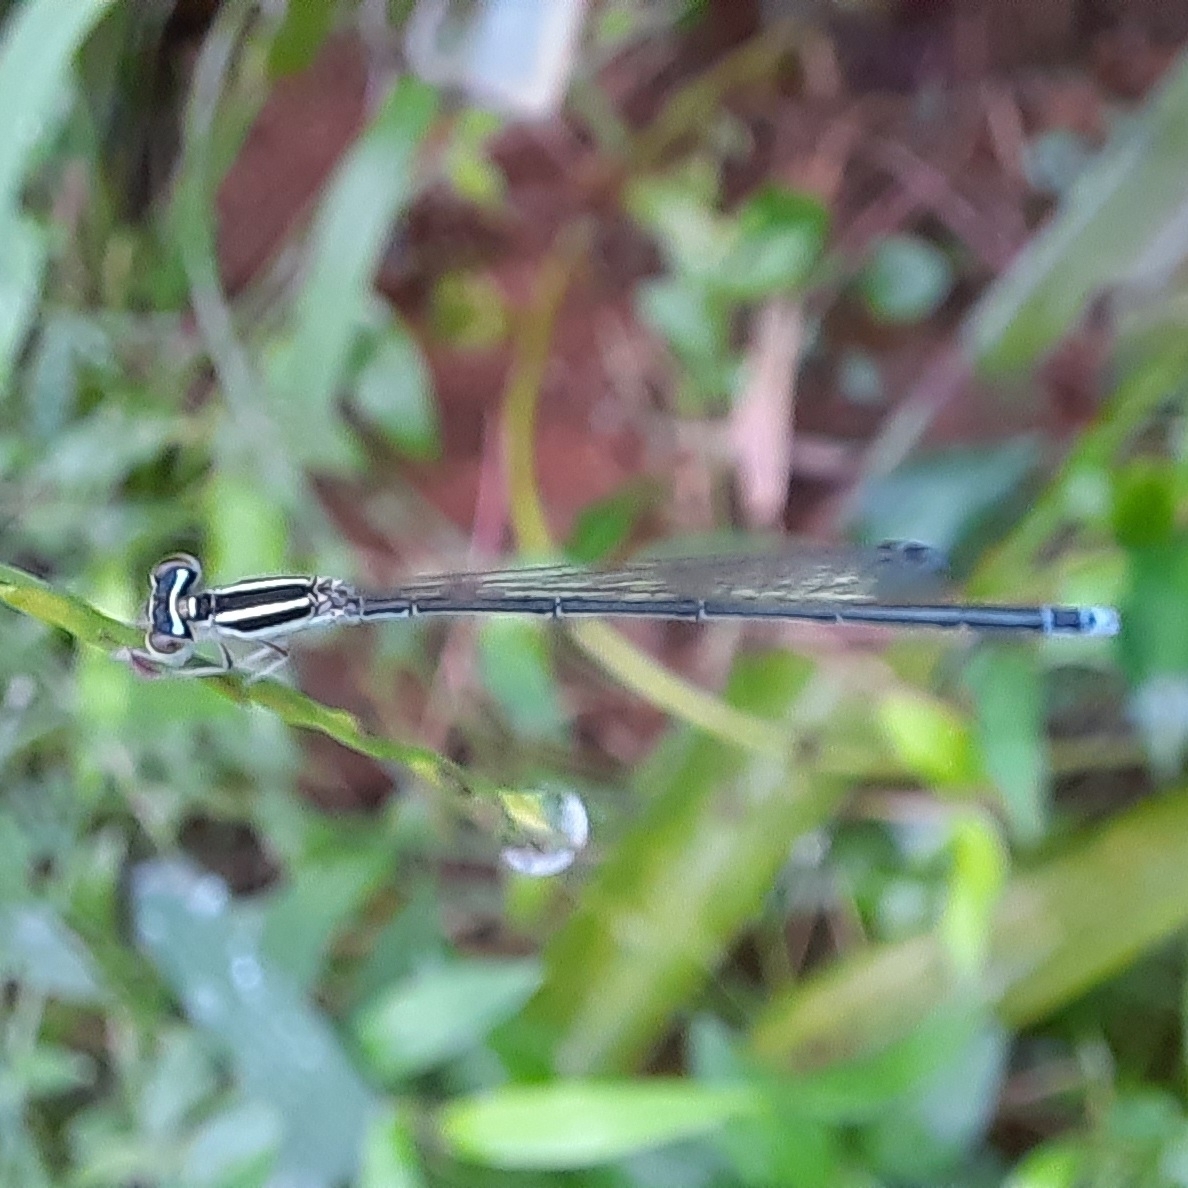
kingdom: Animalia
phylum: Arthropoda
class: Insecta
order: Odonata
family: Coenagrionidae
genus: Aciagrion
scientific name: Aciagrion occidentale
